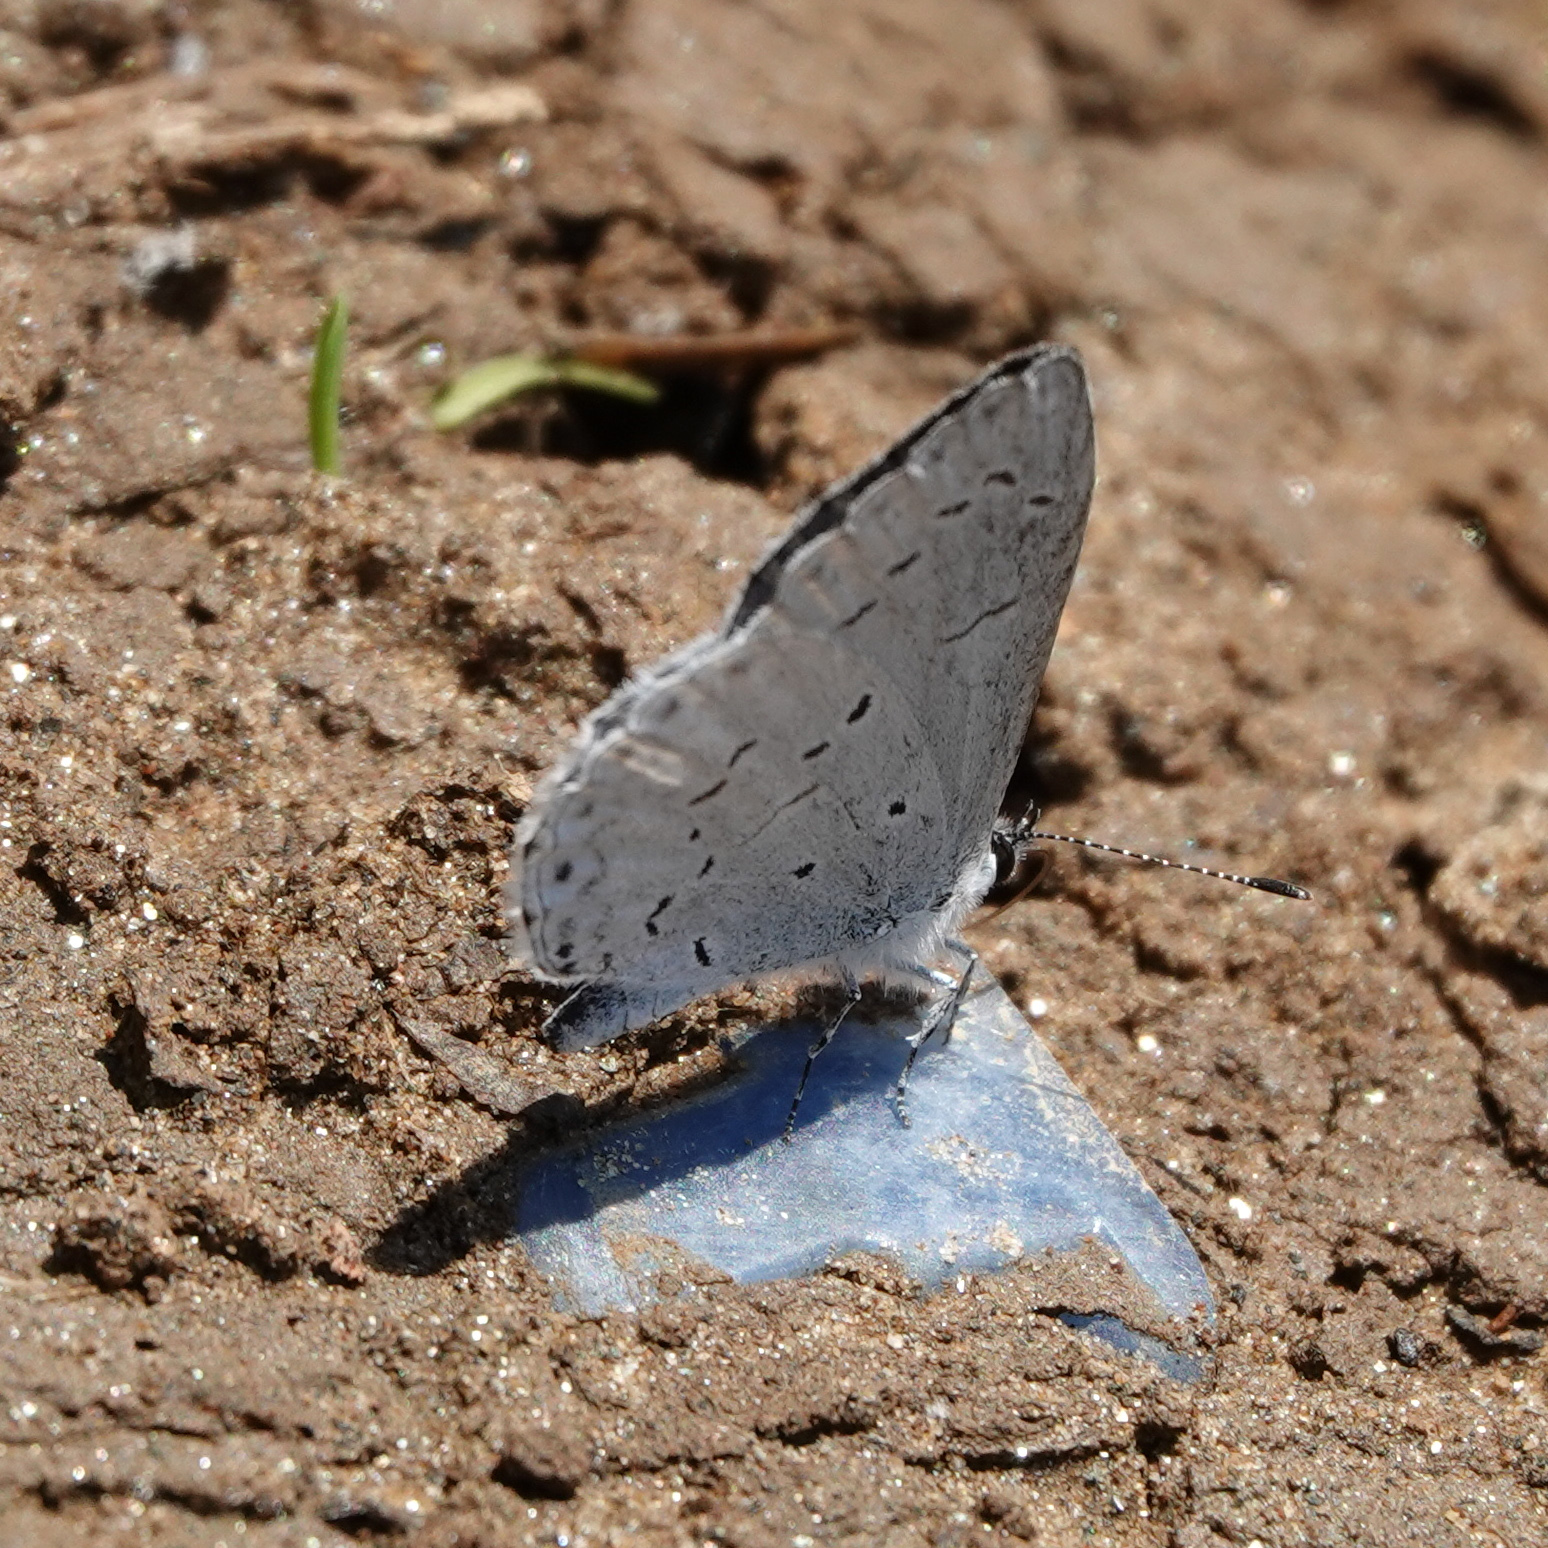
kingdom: Animalia
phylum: Arthropoda
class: Insecta
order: Lepidoptera
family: Lycaenidae
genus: Cyaniris
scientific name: Cyaniris neglecta
